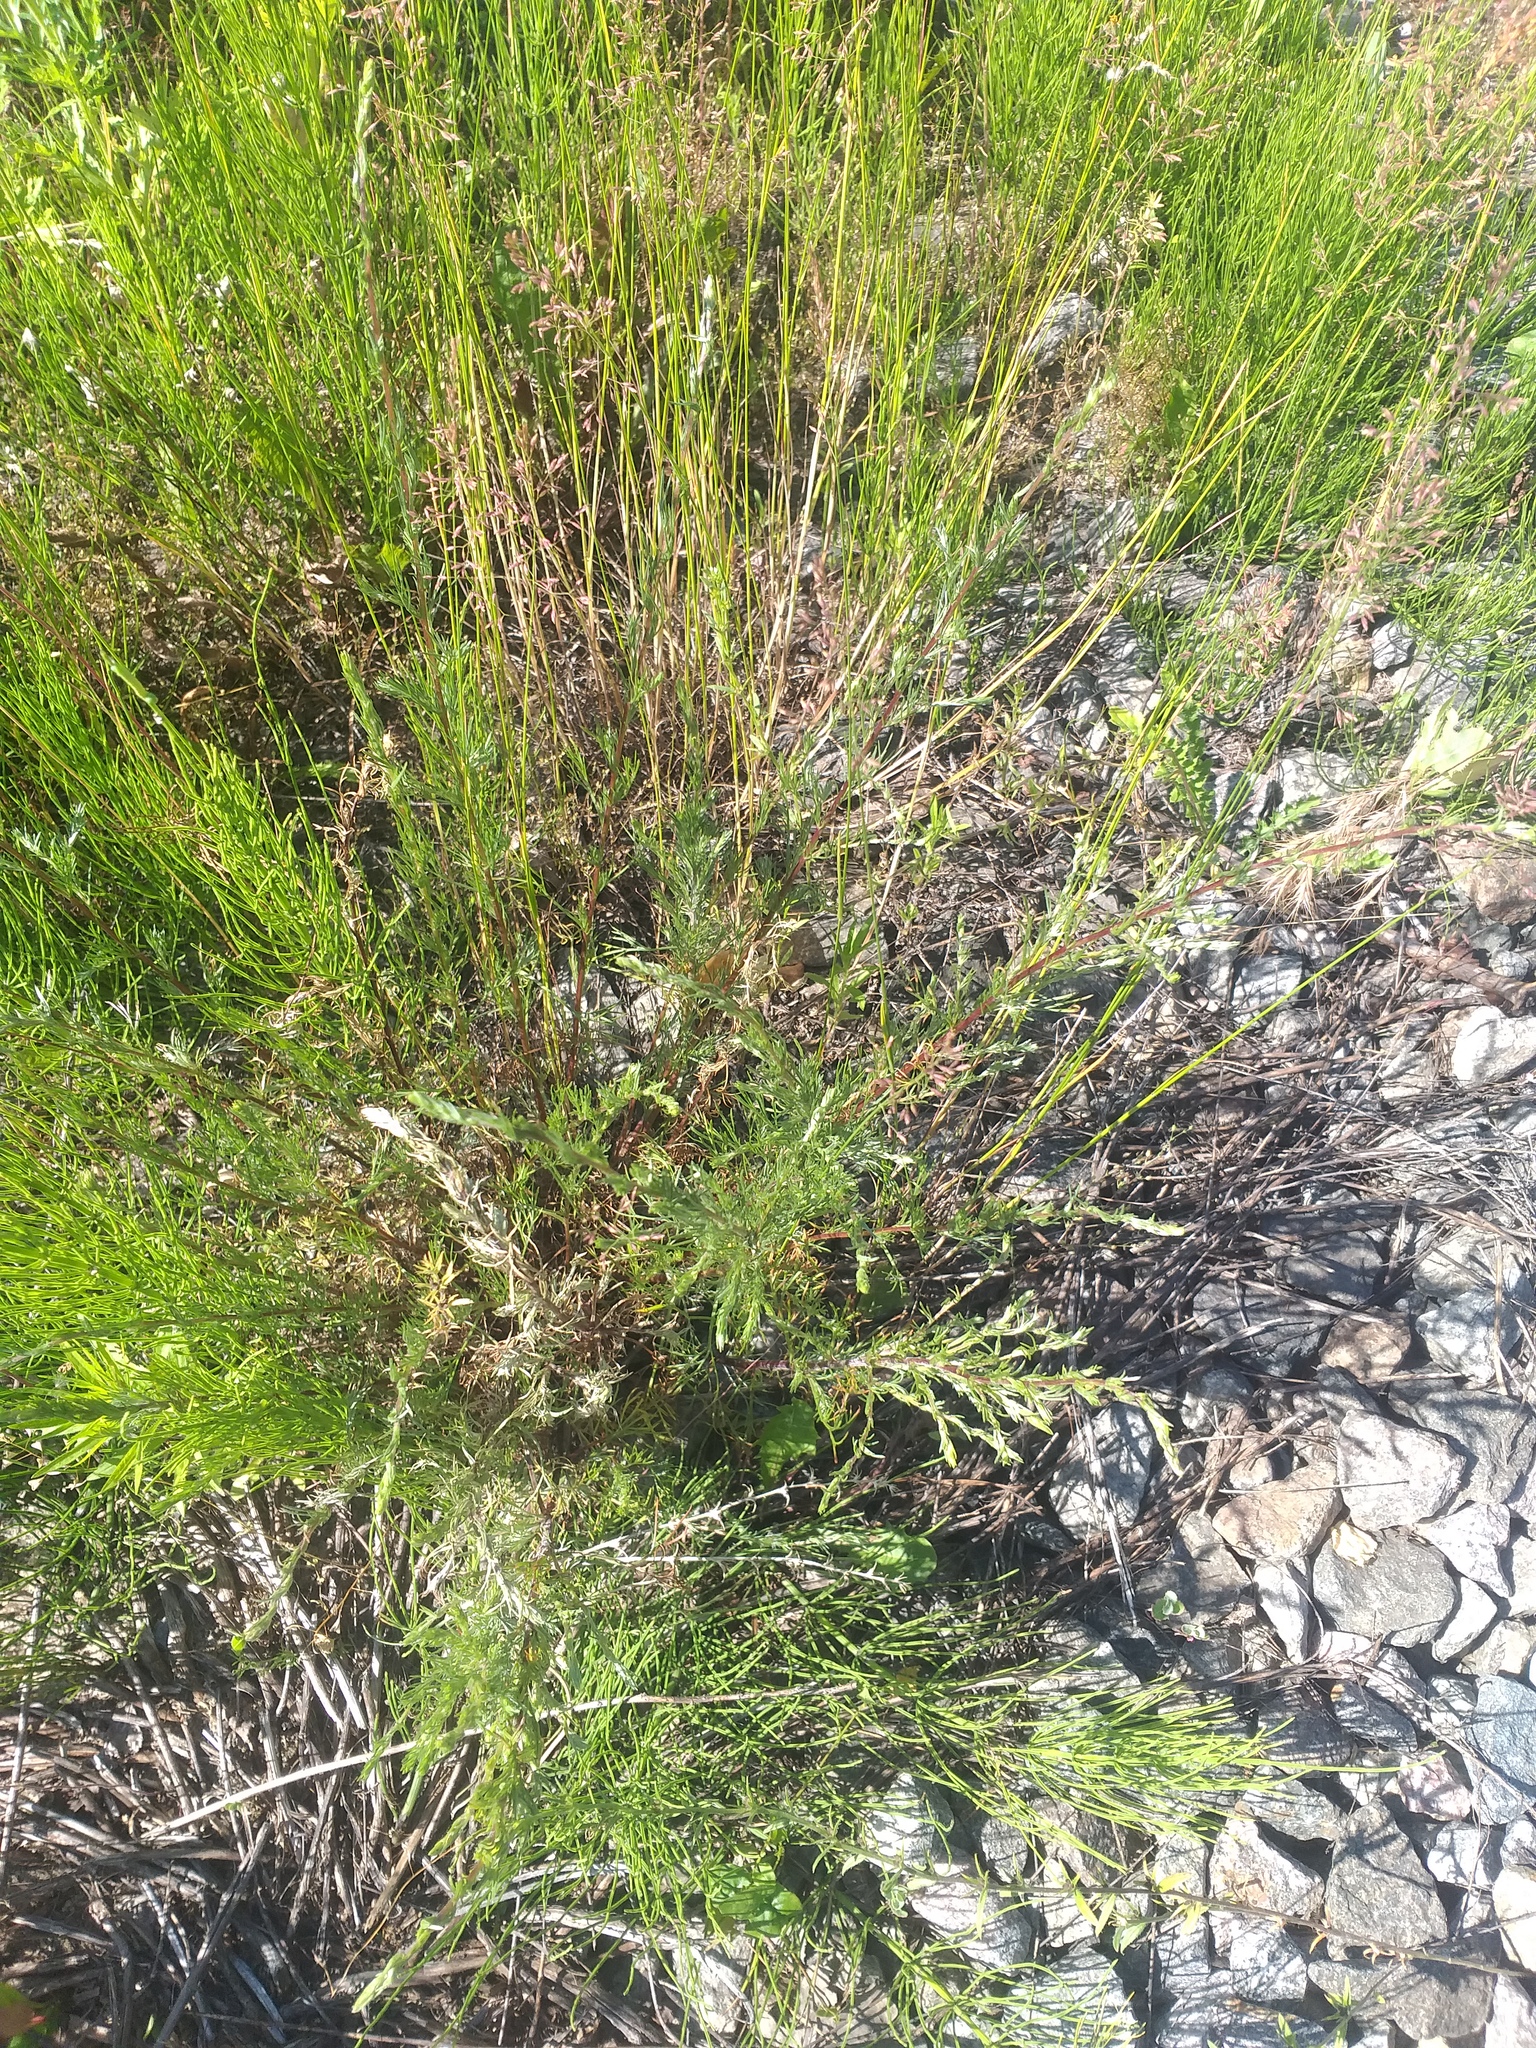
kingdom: Plantae
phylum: Tracheophyta
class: Magnoliopsida
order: Asterales
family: Asteraceae
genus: Artemisia
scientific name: Artemisia campestris
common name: Field wormwood
